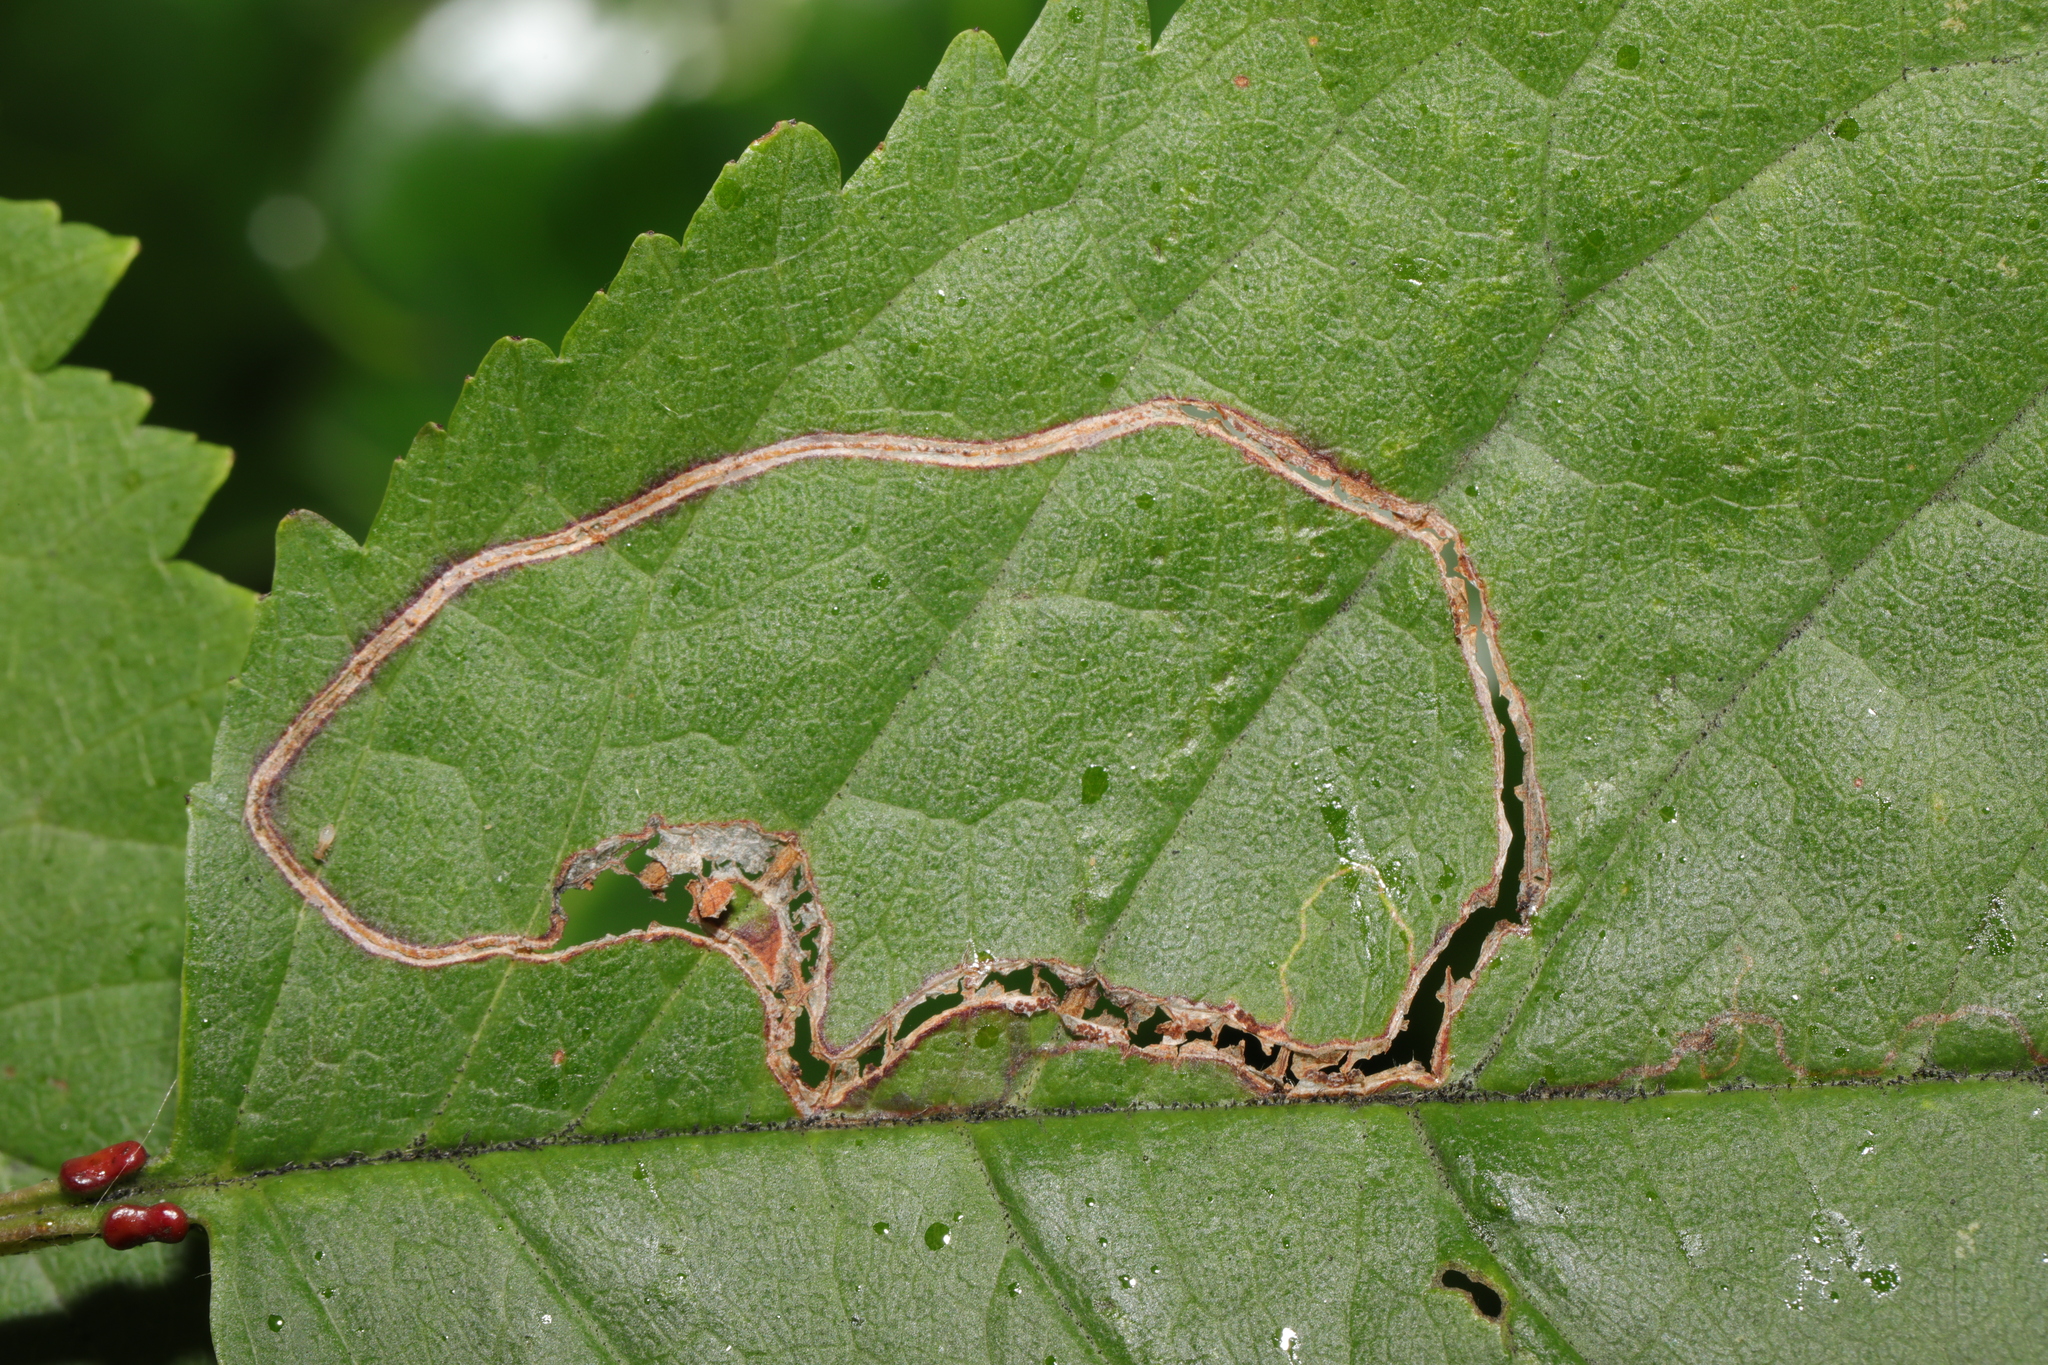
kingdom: Animalia
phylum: Arthropoda
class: Insecta
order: Lepidoptera
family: Lyonetiidae
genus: Lyonetia
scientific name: Lyonetia clerkella
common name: Apple leaf miner
